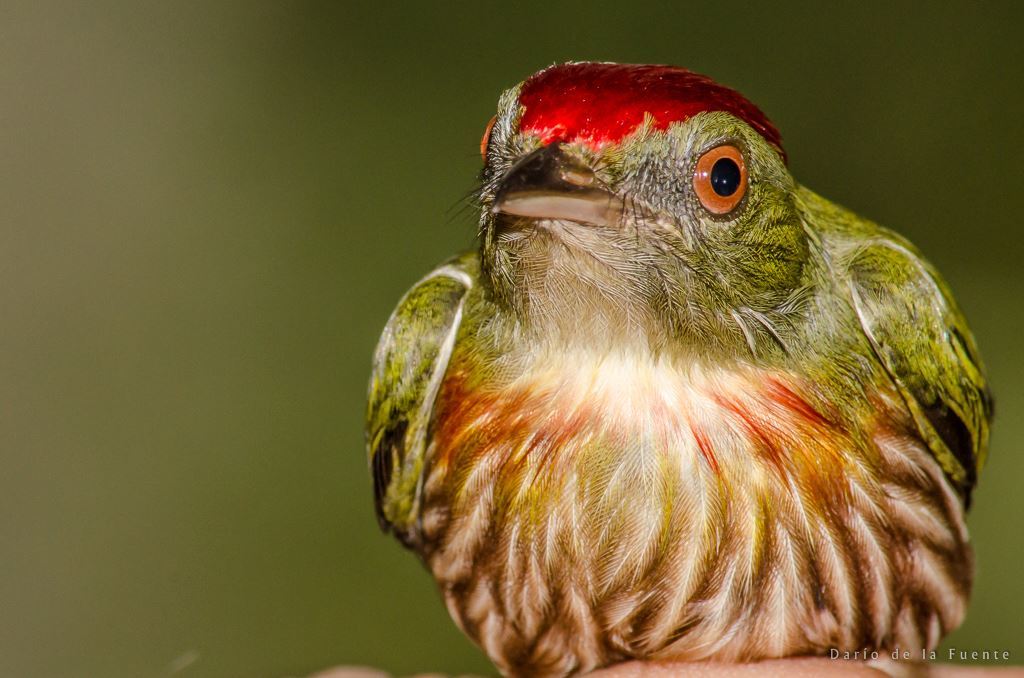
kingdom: Animalia
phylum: Chordata
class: Aves
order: Passeriformes
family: Pipridae
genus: Machaeropterus
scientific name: Machaeropterus striolatus
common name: Striolated manakin
